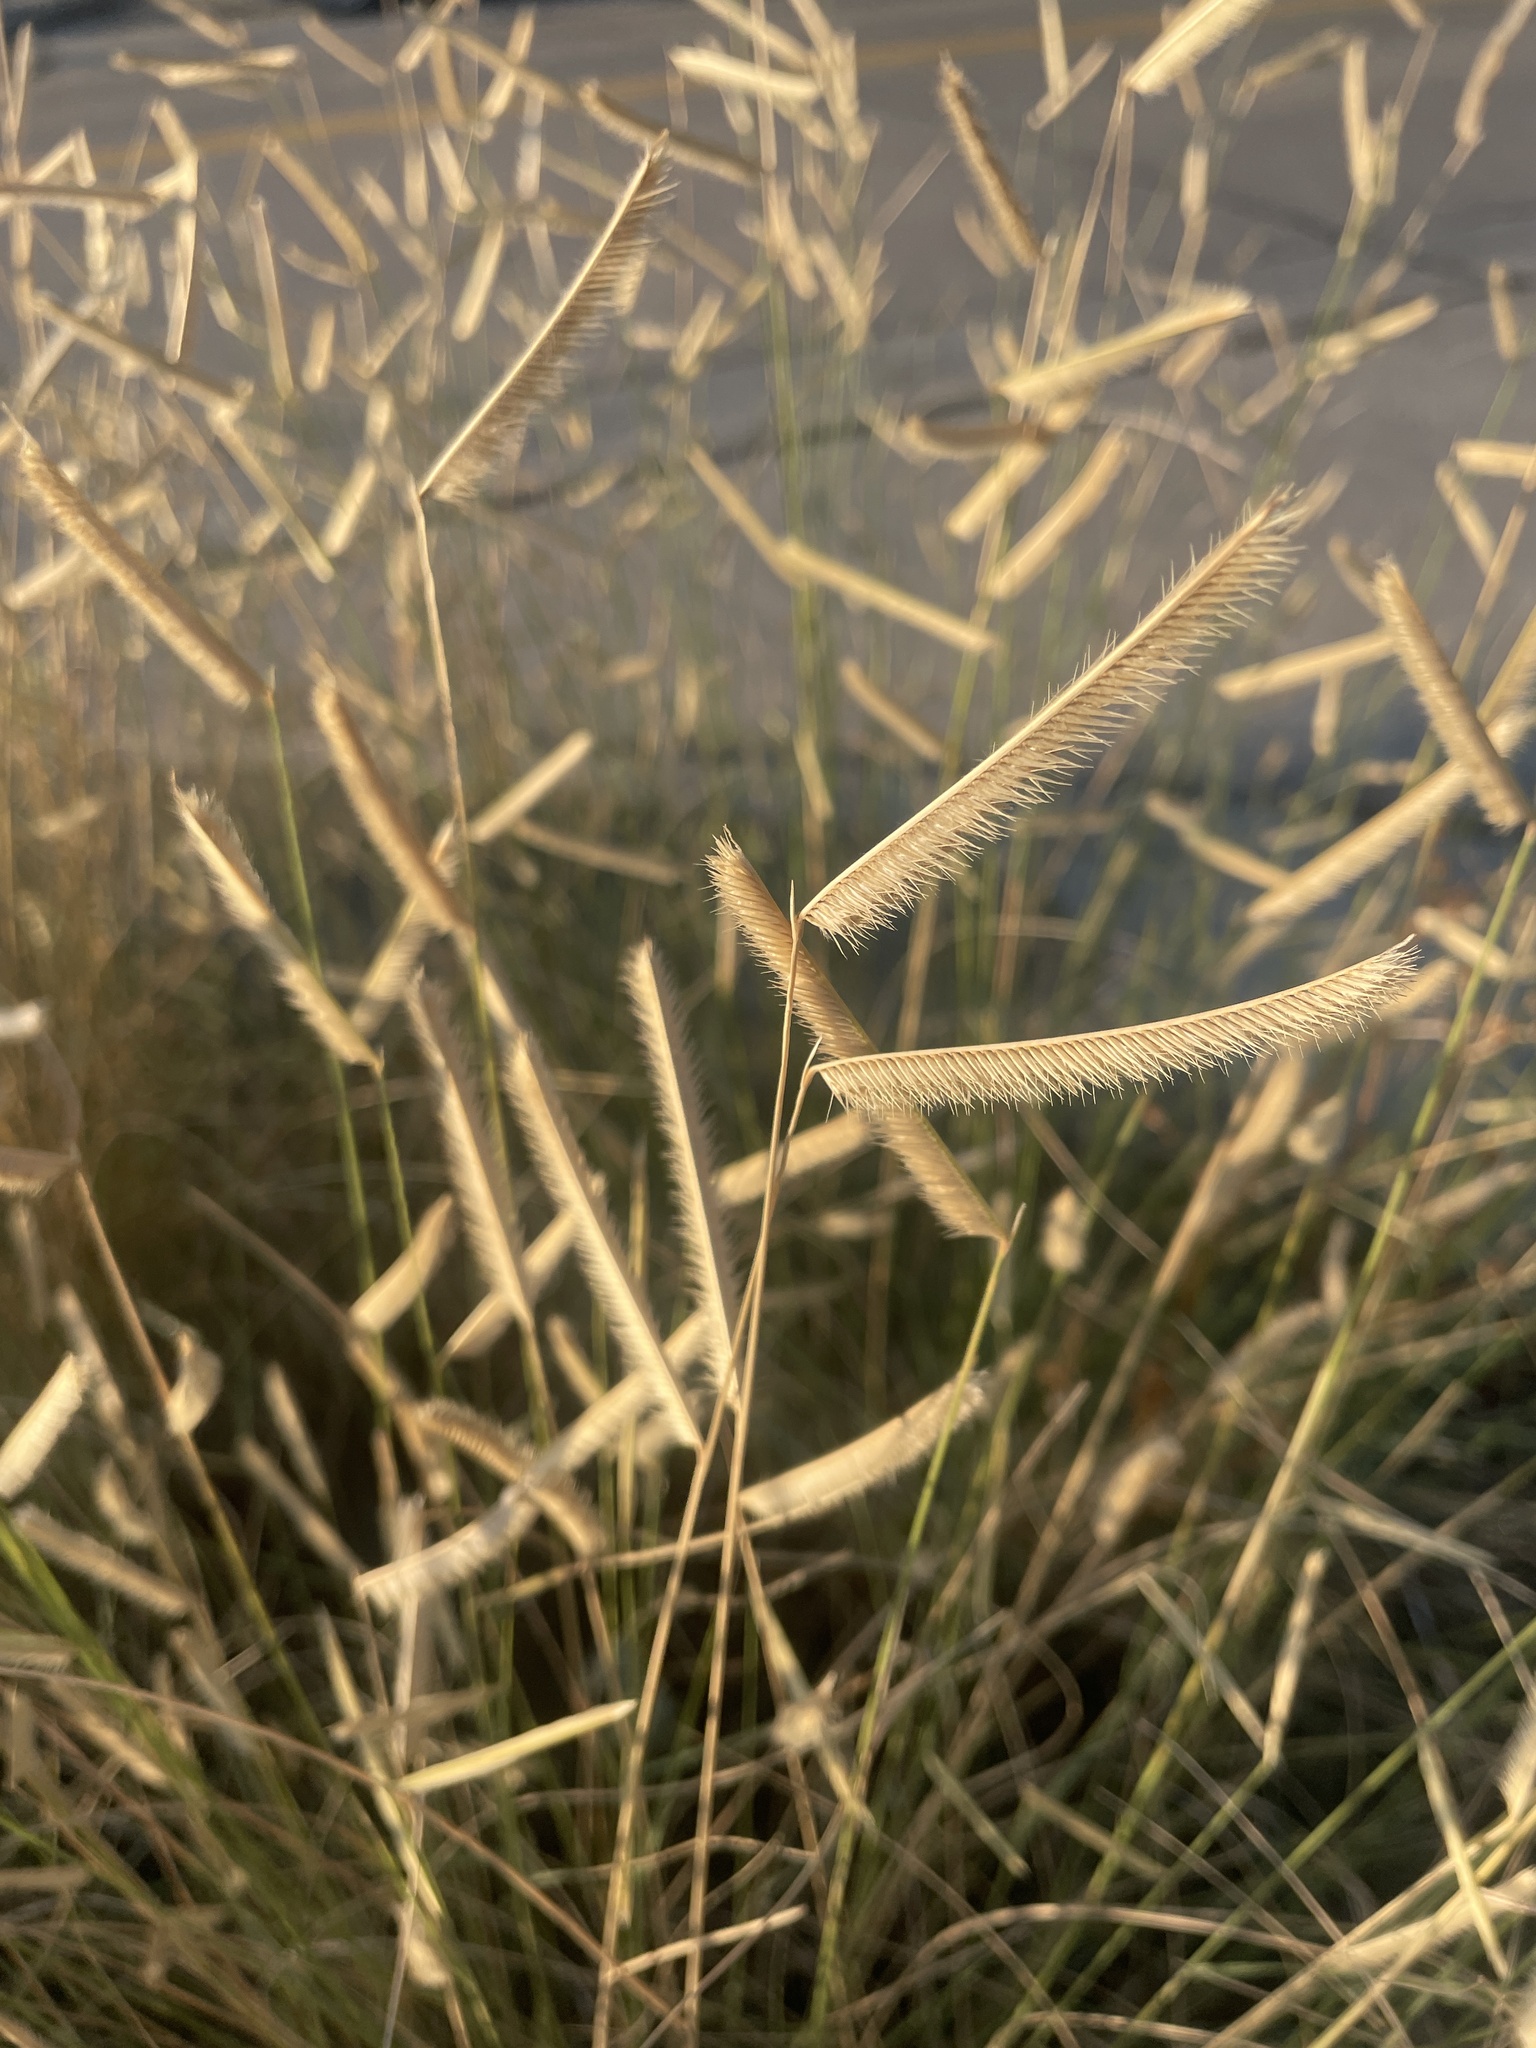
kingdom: Plantae
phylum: Tracheophyta
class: Liliopsida
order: Poales
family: Poaceae
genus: Bouteloua
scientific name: Bouteloua gracilis
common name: Blue grama
